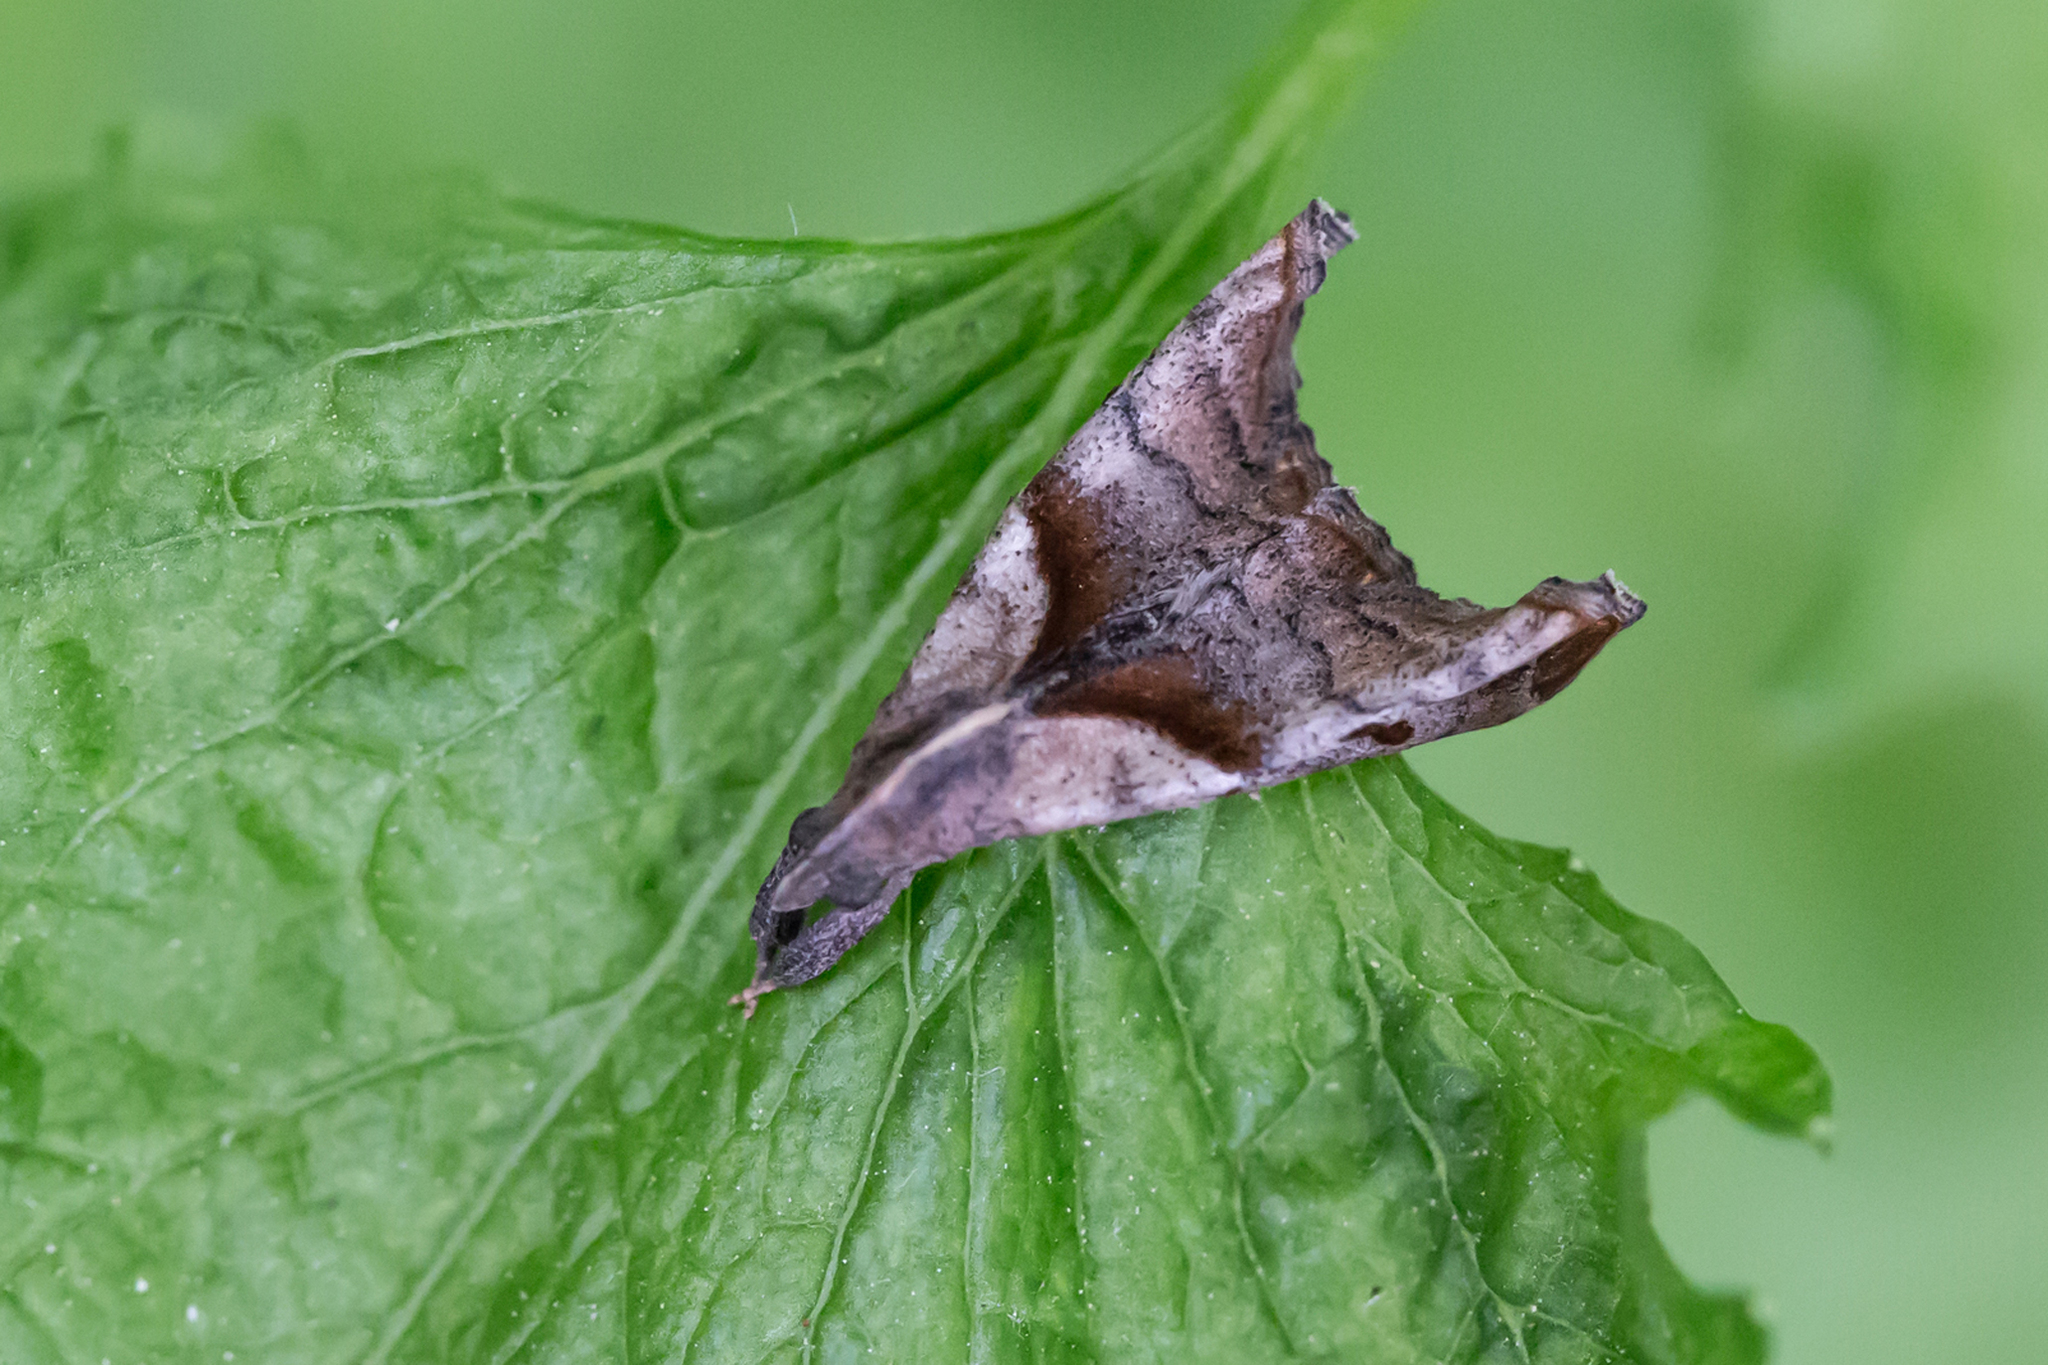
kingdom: Animalia
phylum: Arthropoda
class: Insecta
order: Lepidoptera
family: Erebidae
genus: Palthis
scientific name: Palthis angulalis
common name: Dark-spotted palthis moth
